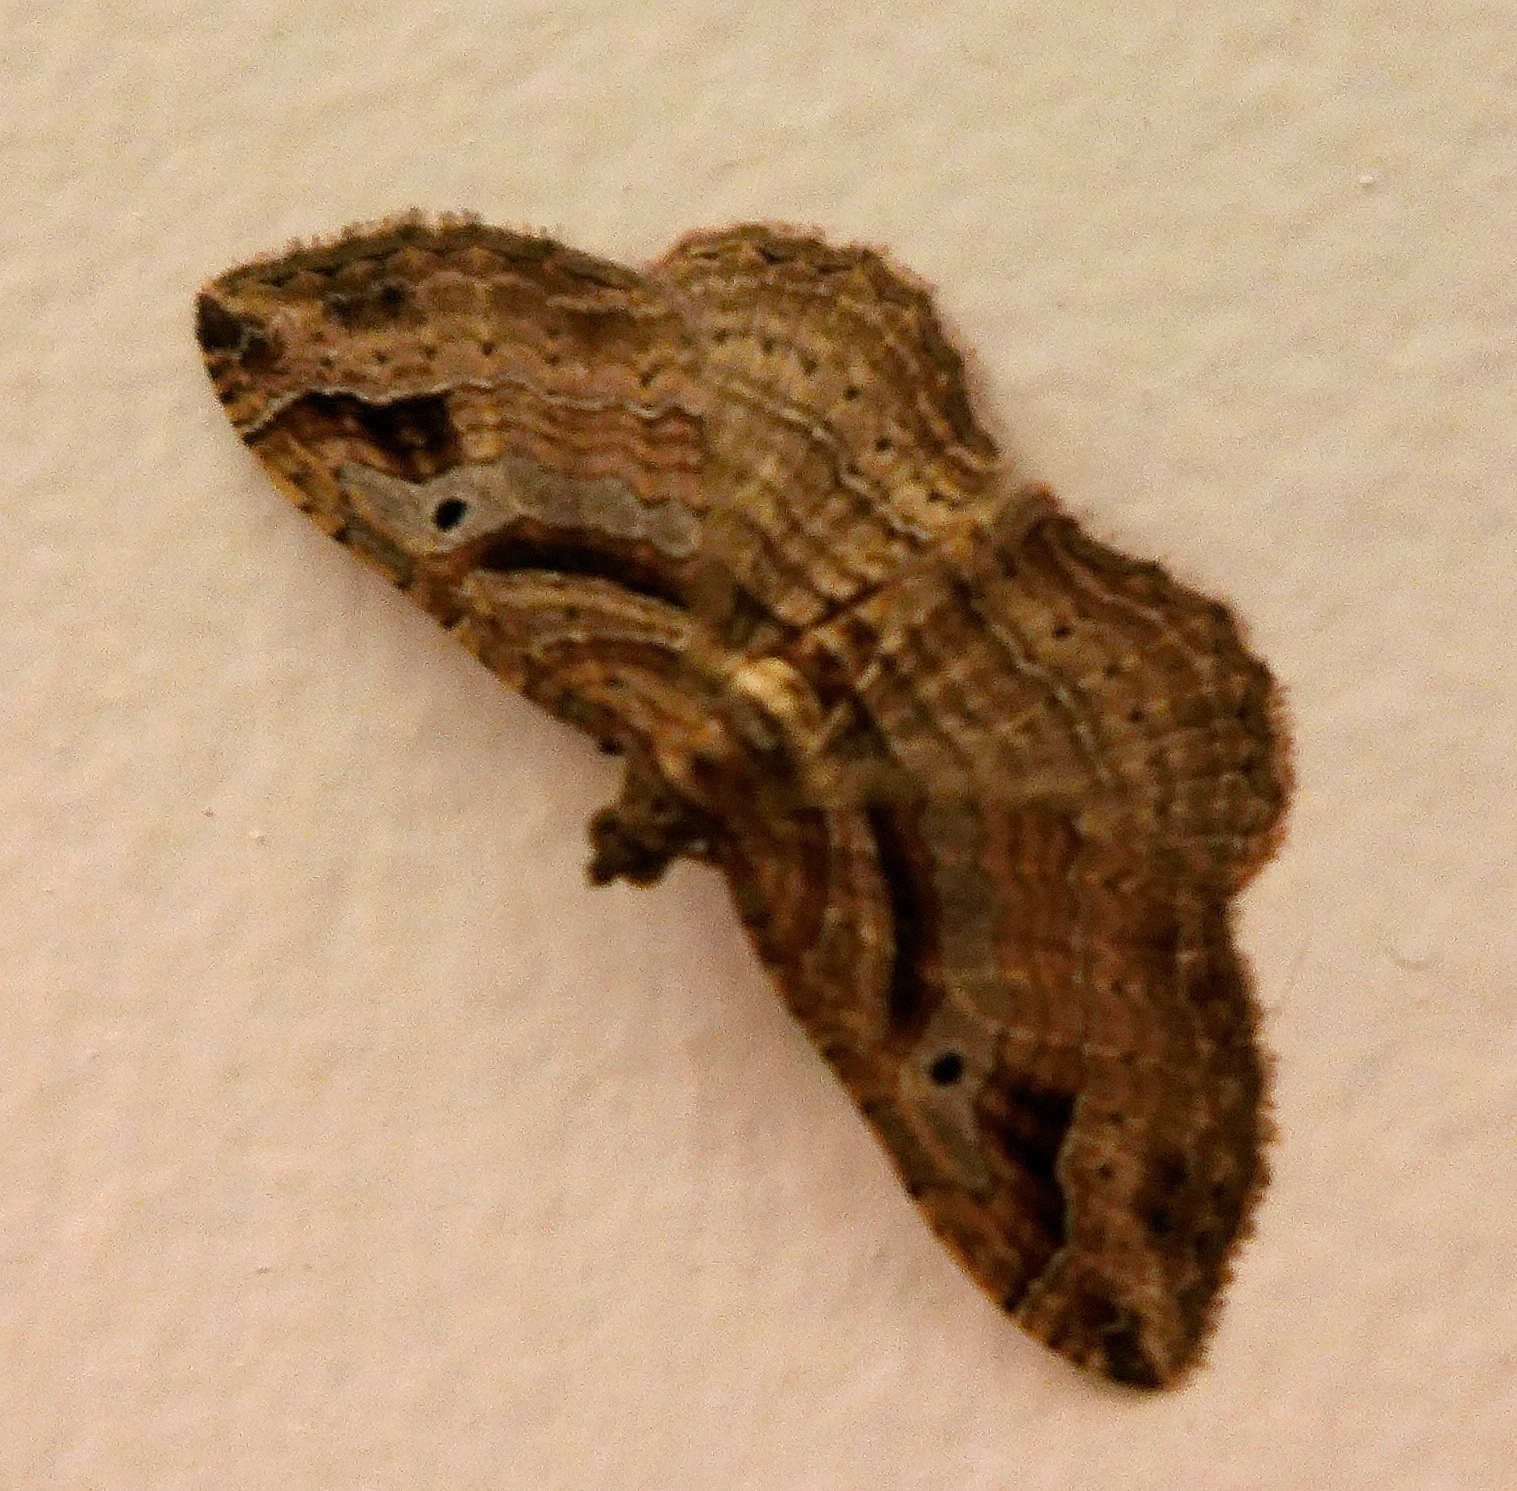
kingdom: Animalia
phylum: Arthropoda
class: Insecta
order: Lepidoptera
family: Geometridae
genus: Costaconvexa
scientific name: Costaconvexa centrostrigaria
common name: Bent-line carpet
